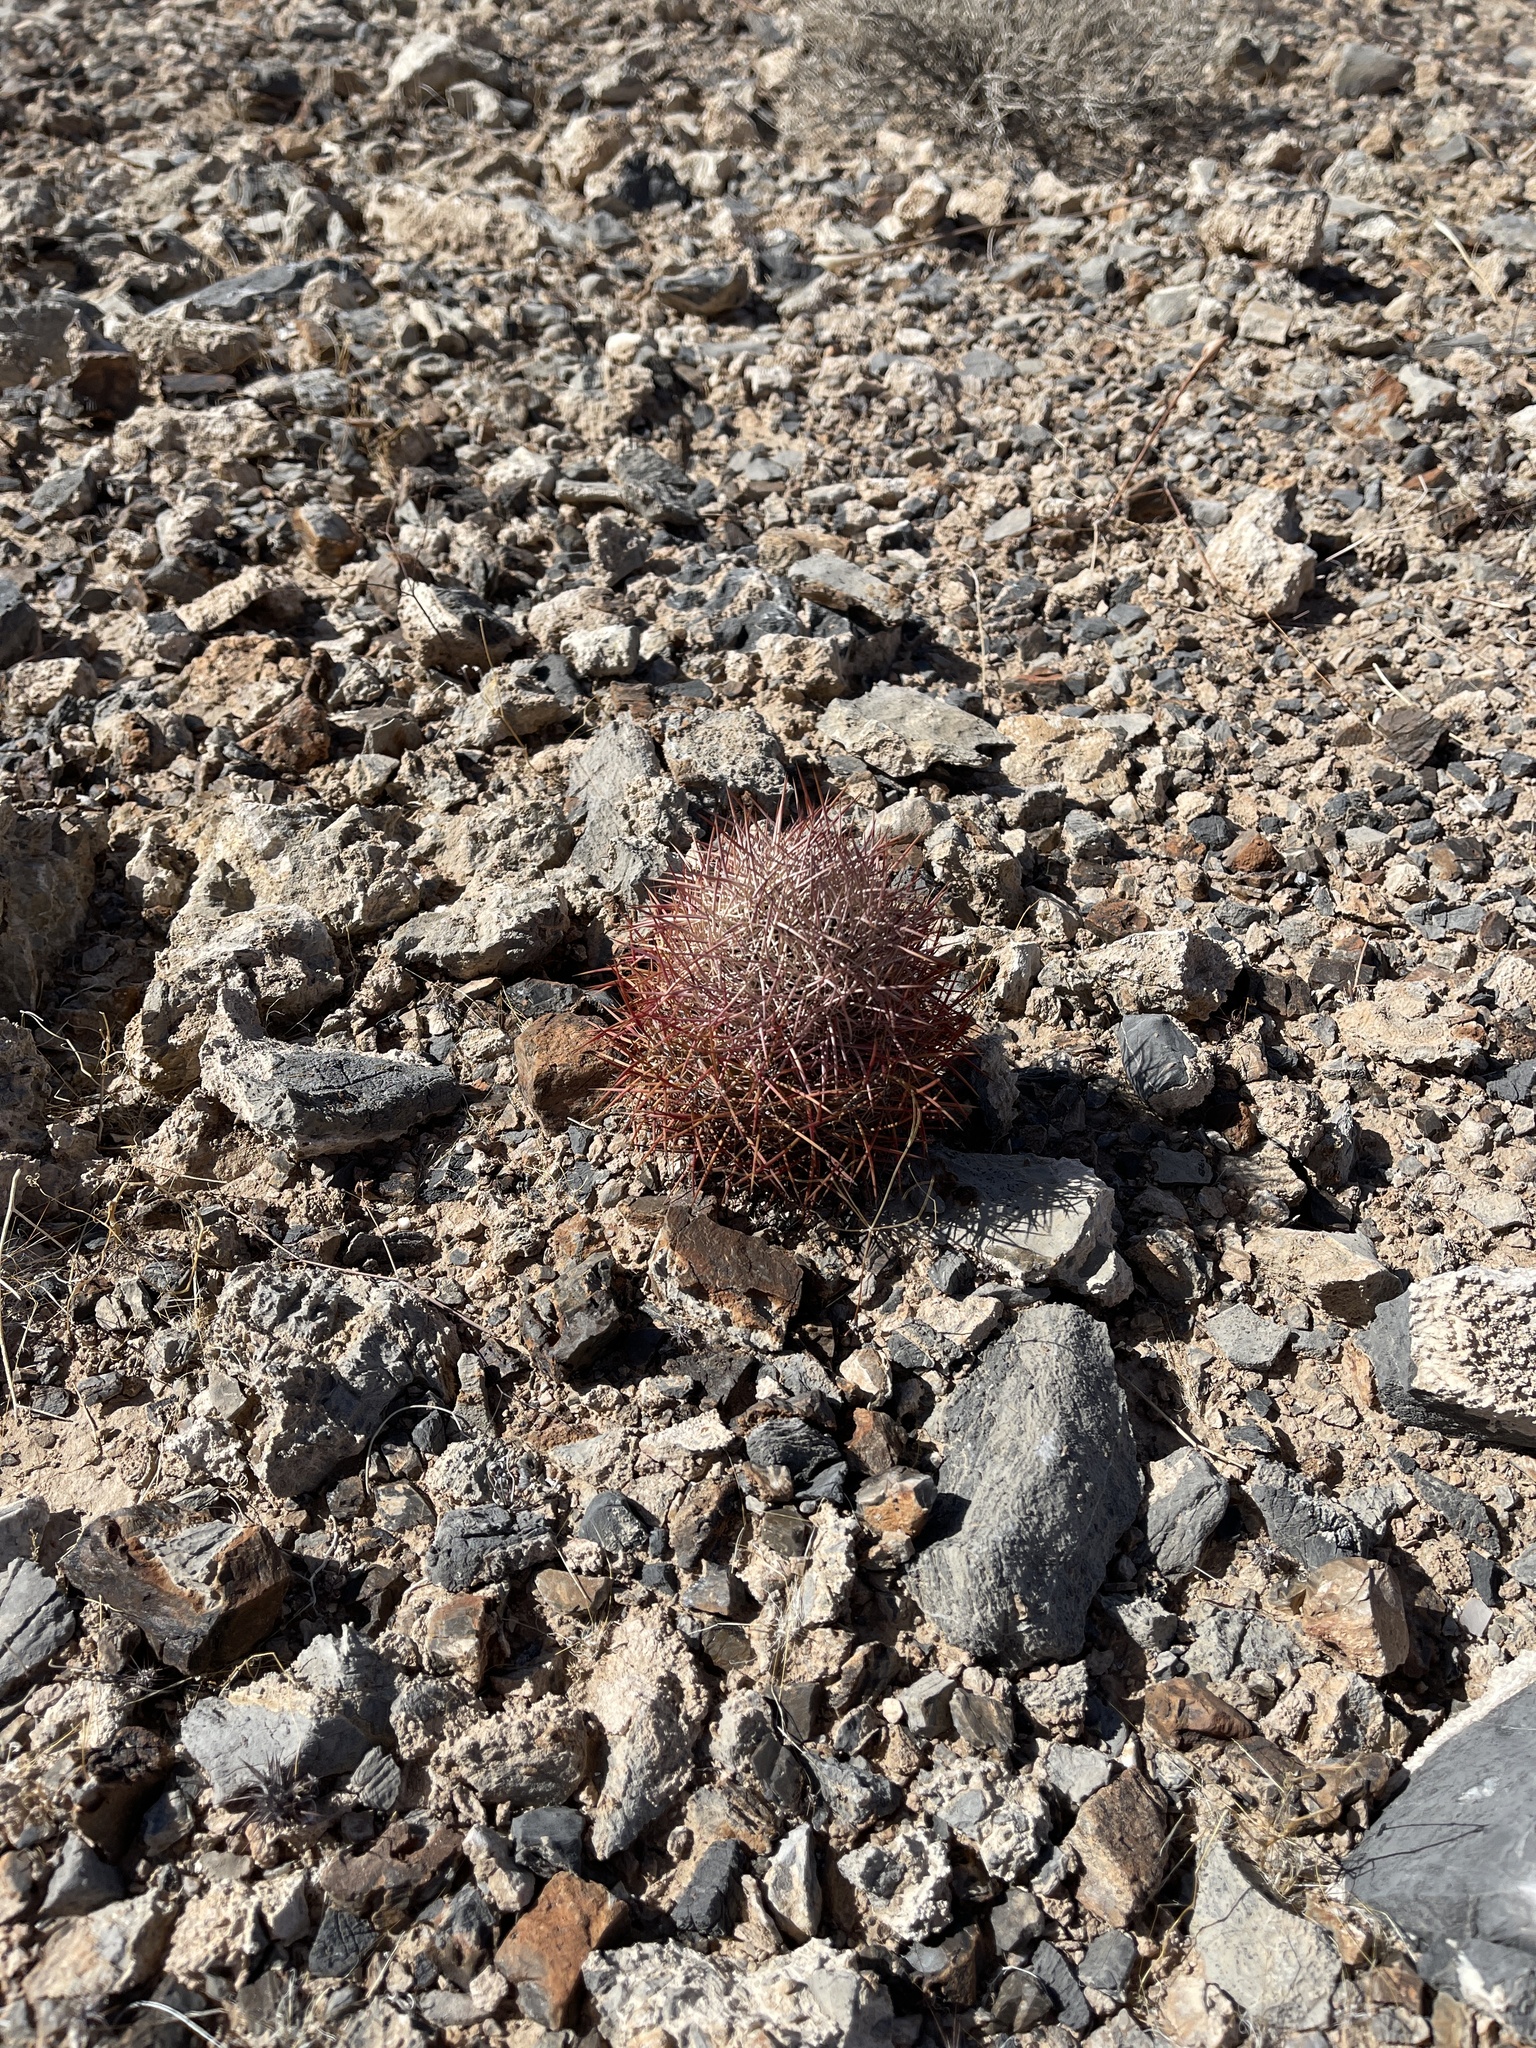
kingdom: Plantae
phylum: Tracheophyta
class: Magnoliopsida
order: Caryophyllales
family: Cactaceae
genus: Sclerocactus
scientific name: Sclerocactus johnsonii
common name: Eight-spine fishhook cactus
